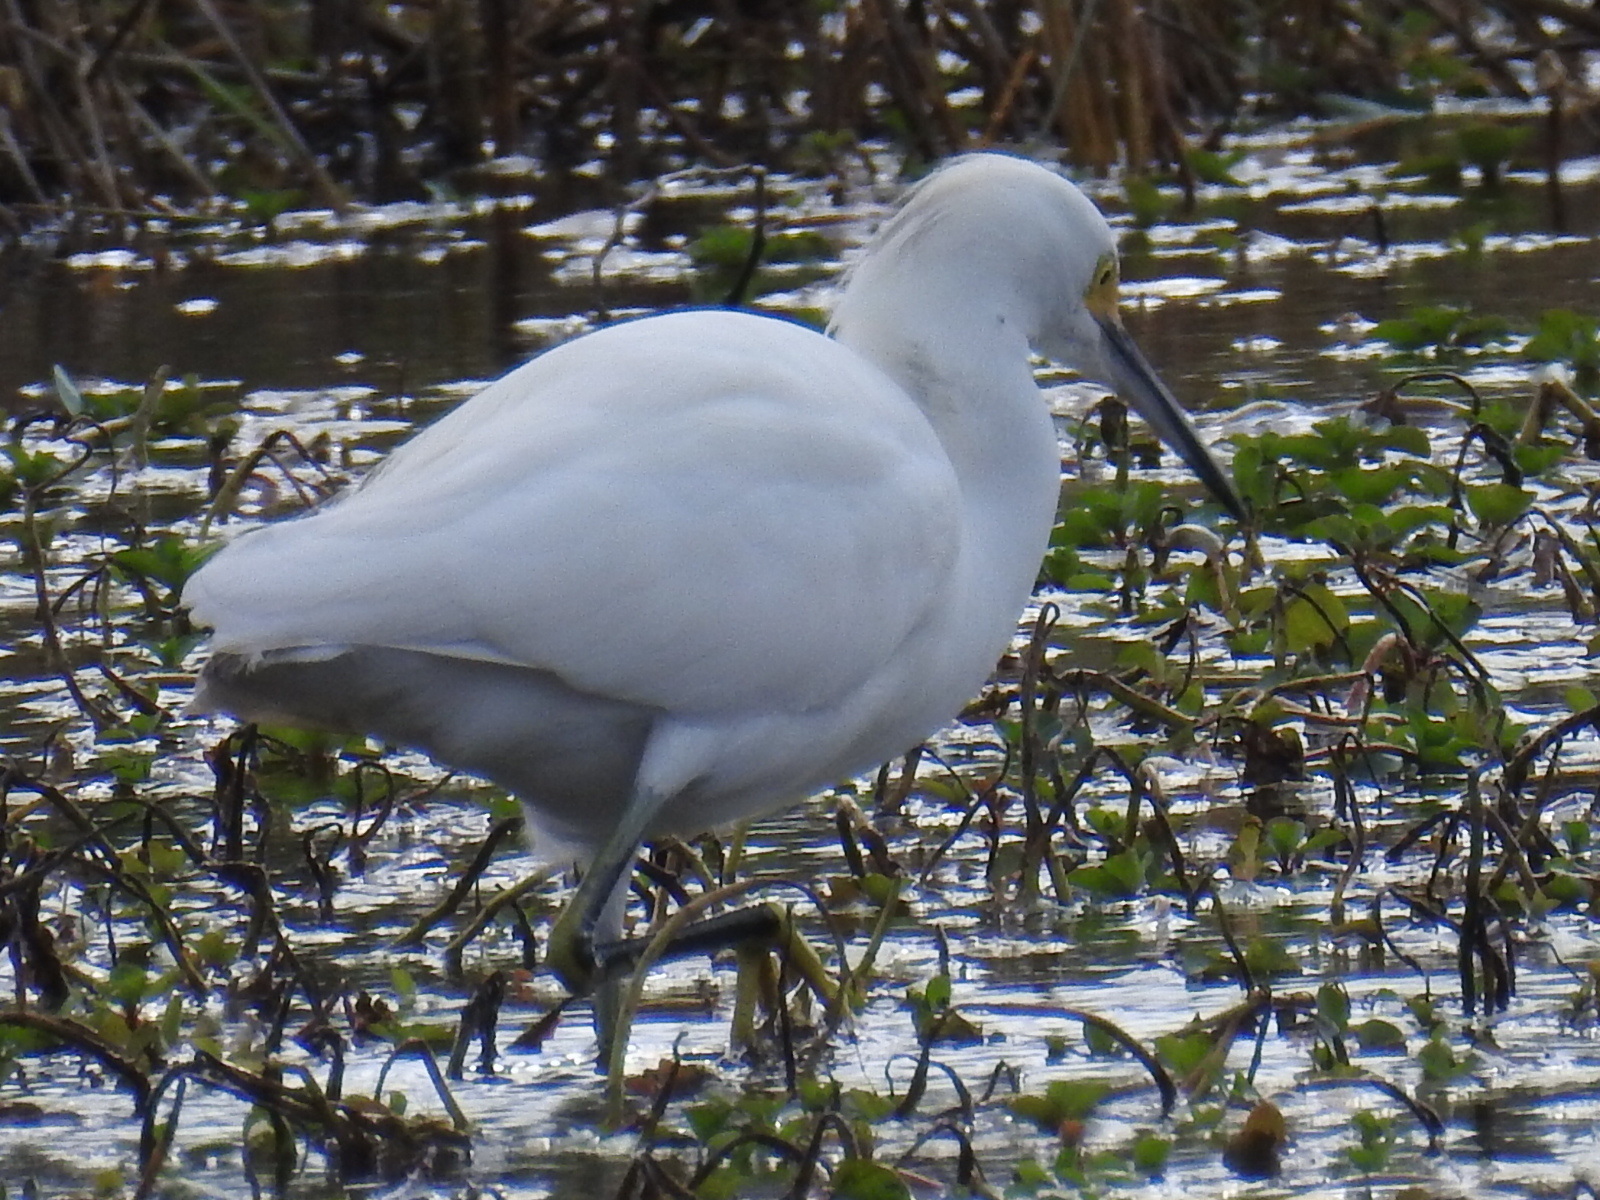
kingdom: Animalia
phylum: Chordata
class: Aves
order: Pelecaniformes
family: Ardeidae
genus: Egretta
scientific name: Egretta thula
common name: Snowy egret
